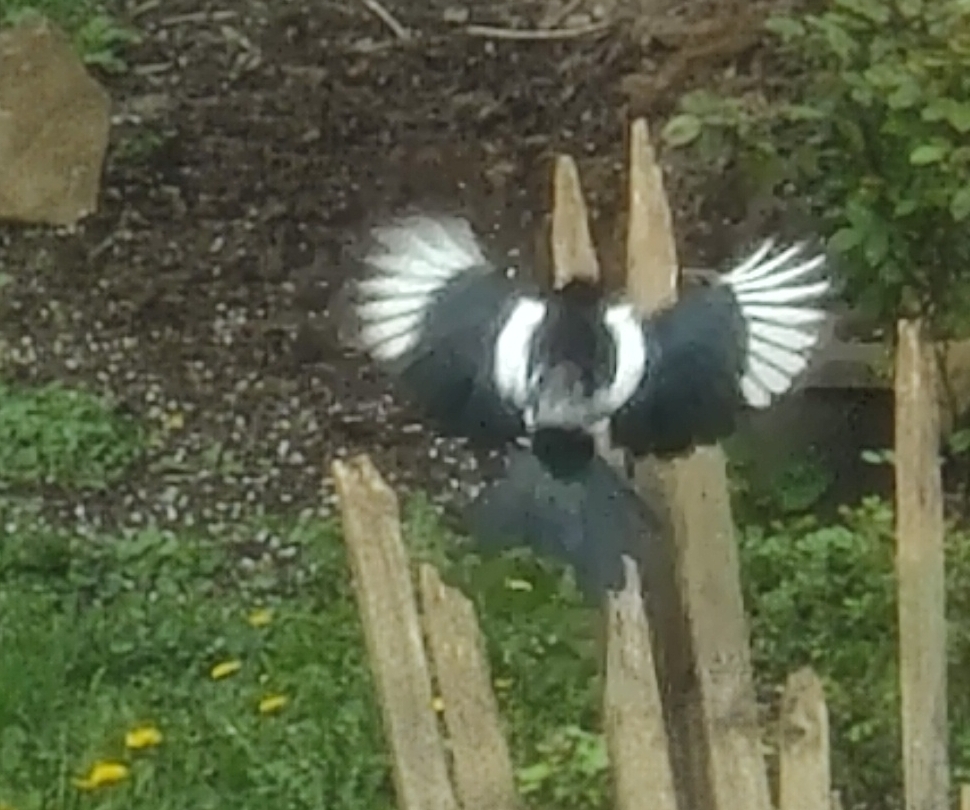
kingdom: Animalia
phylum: Chordata
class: Aves
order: Passeriformes
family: Corvidae
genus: Pica
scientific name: Pica pica
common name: Eurasian magpie
